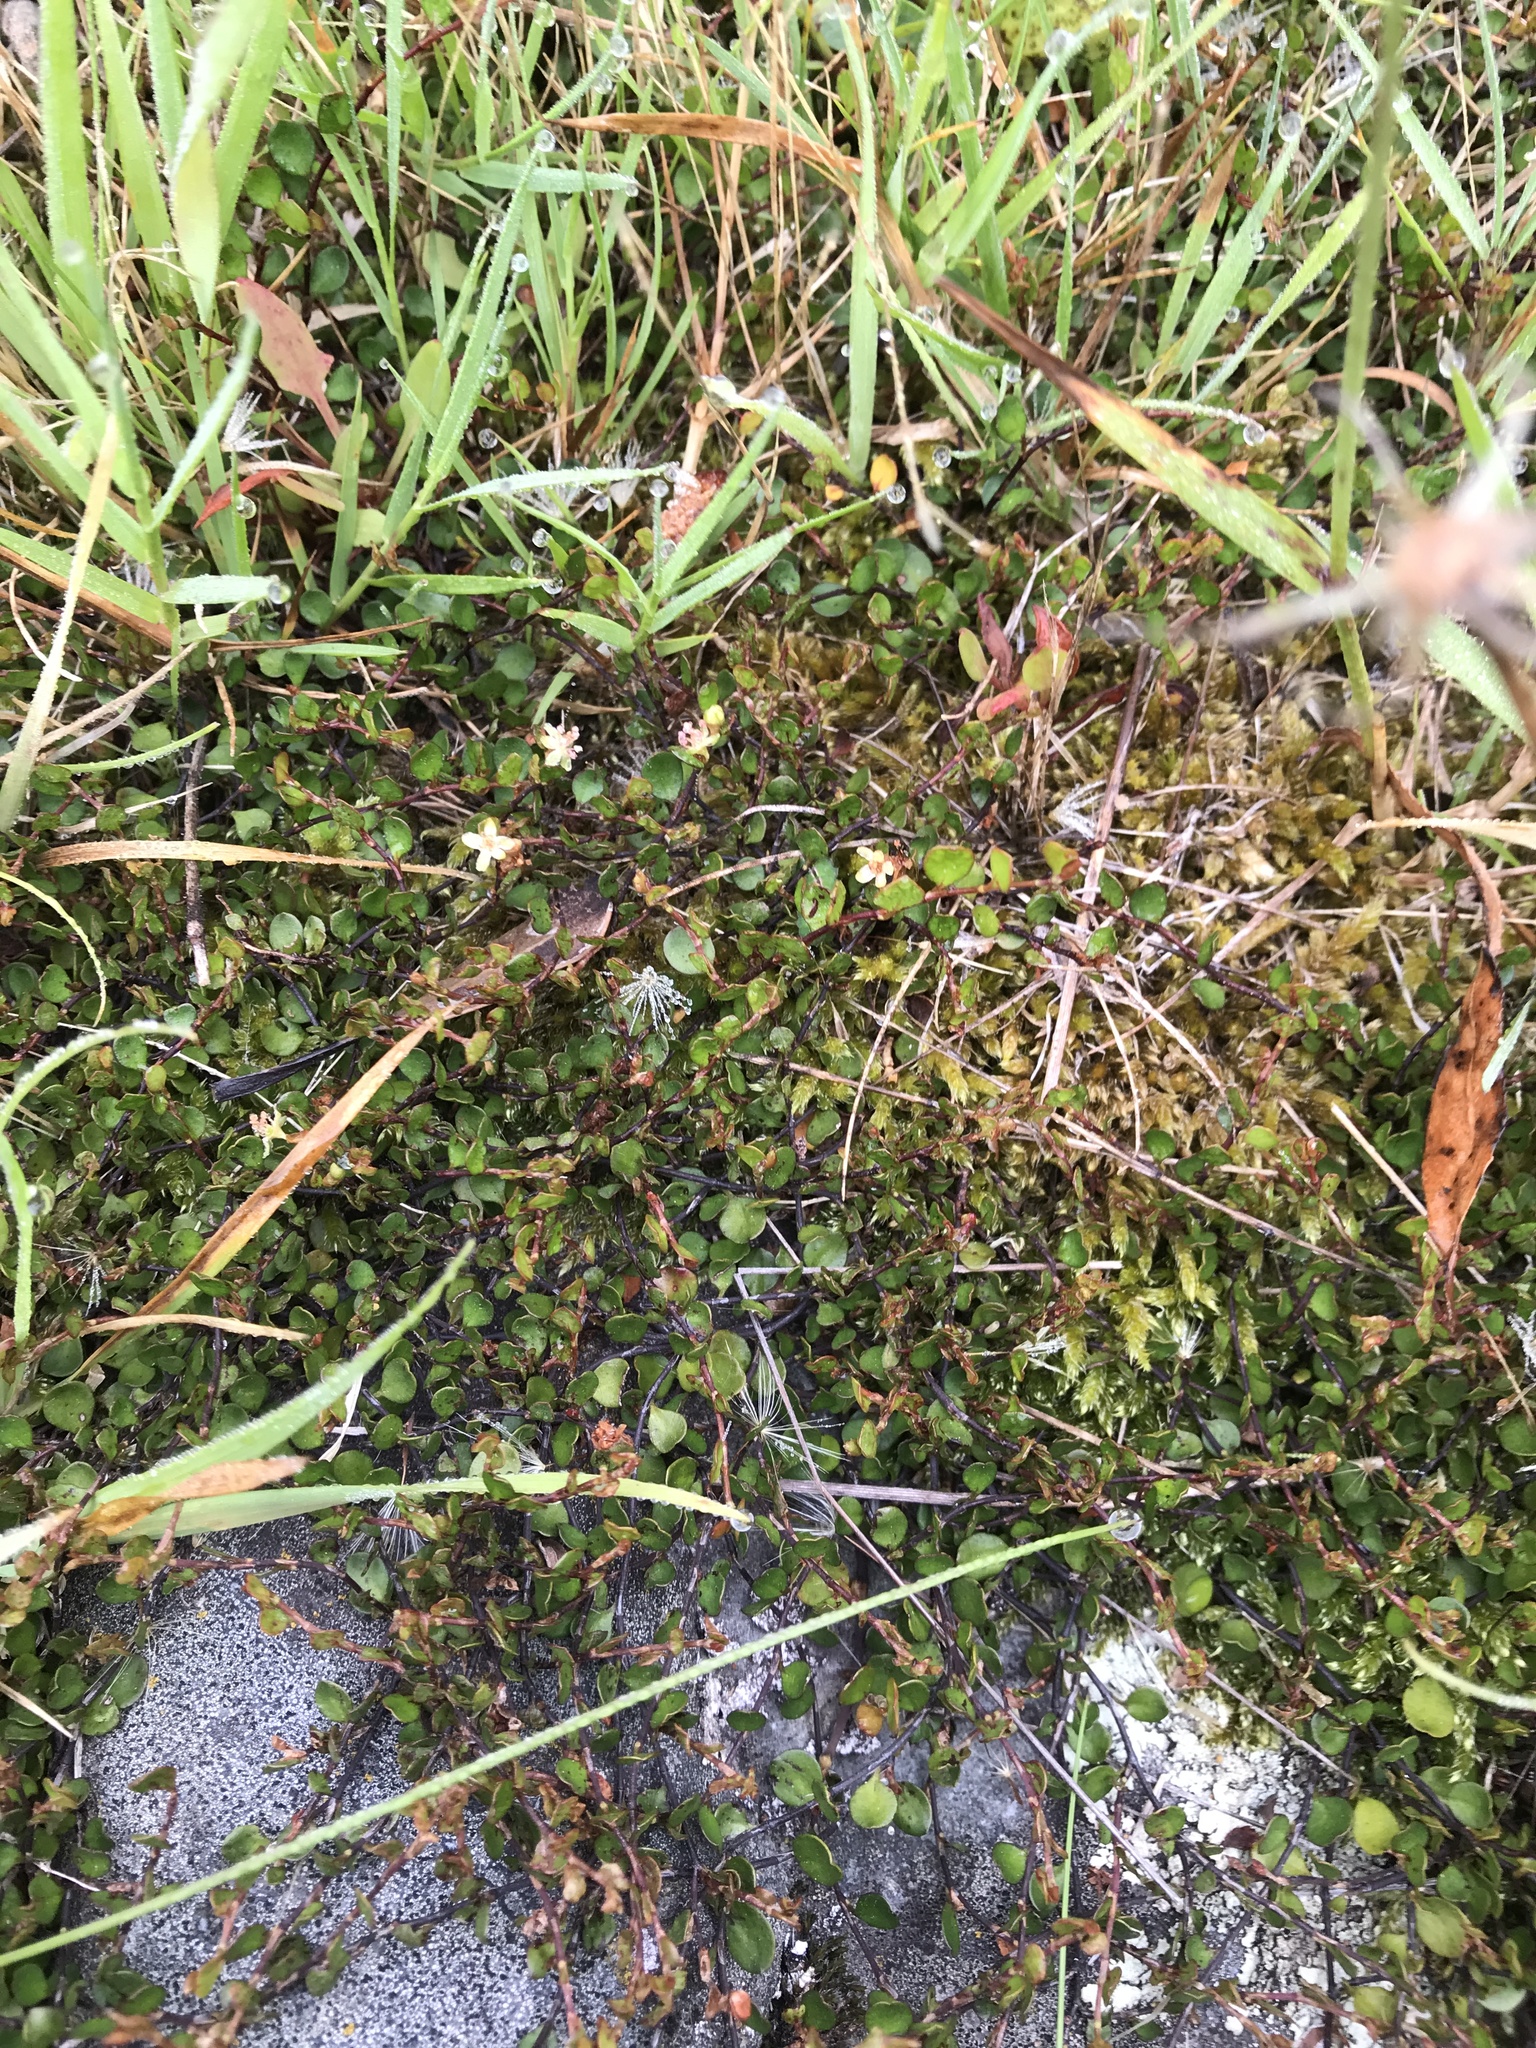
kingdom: Plantae
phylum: Tracheophyta
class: Magnoliopsida
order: Caryophyllales
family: Polygonaceae
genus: Muehlenbeckia
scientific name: Muehlenbeckia axillaris
